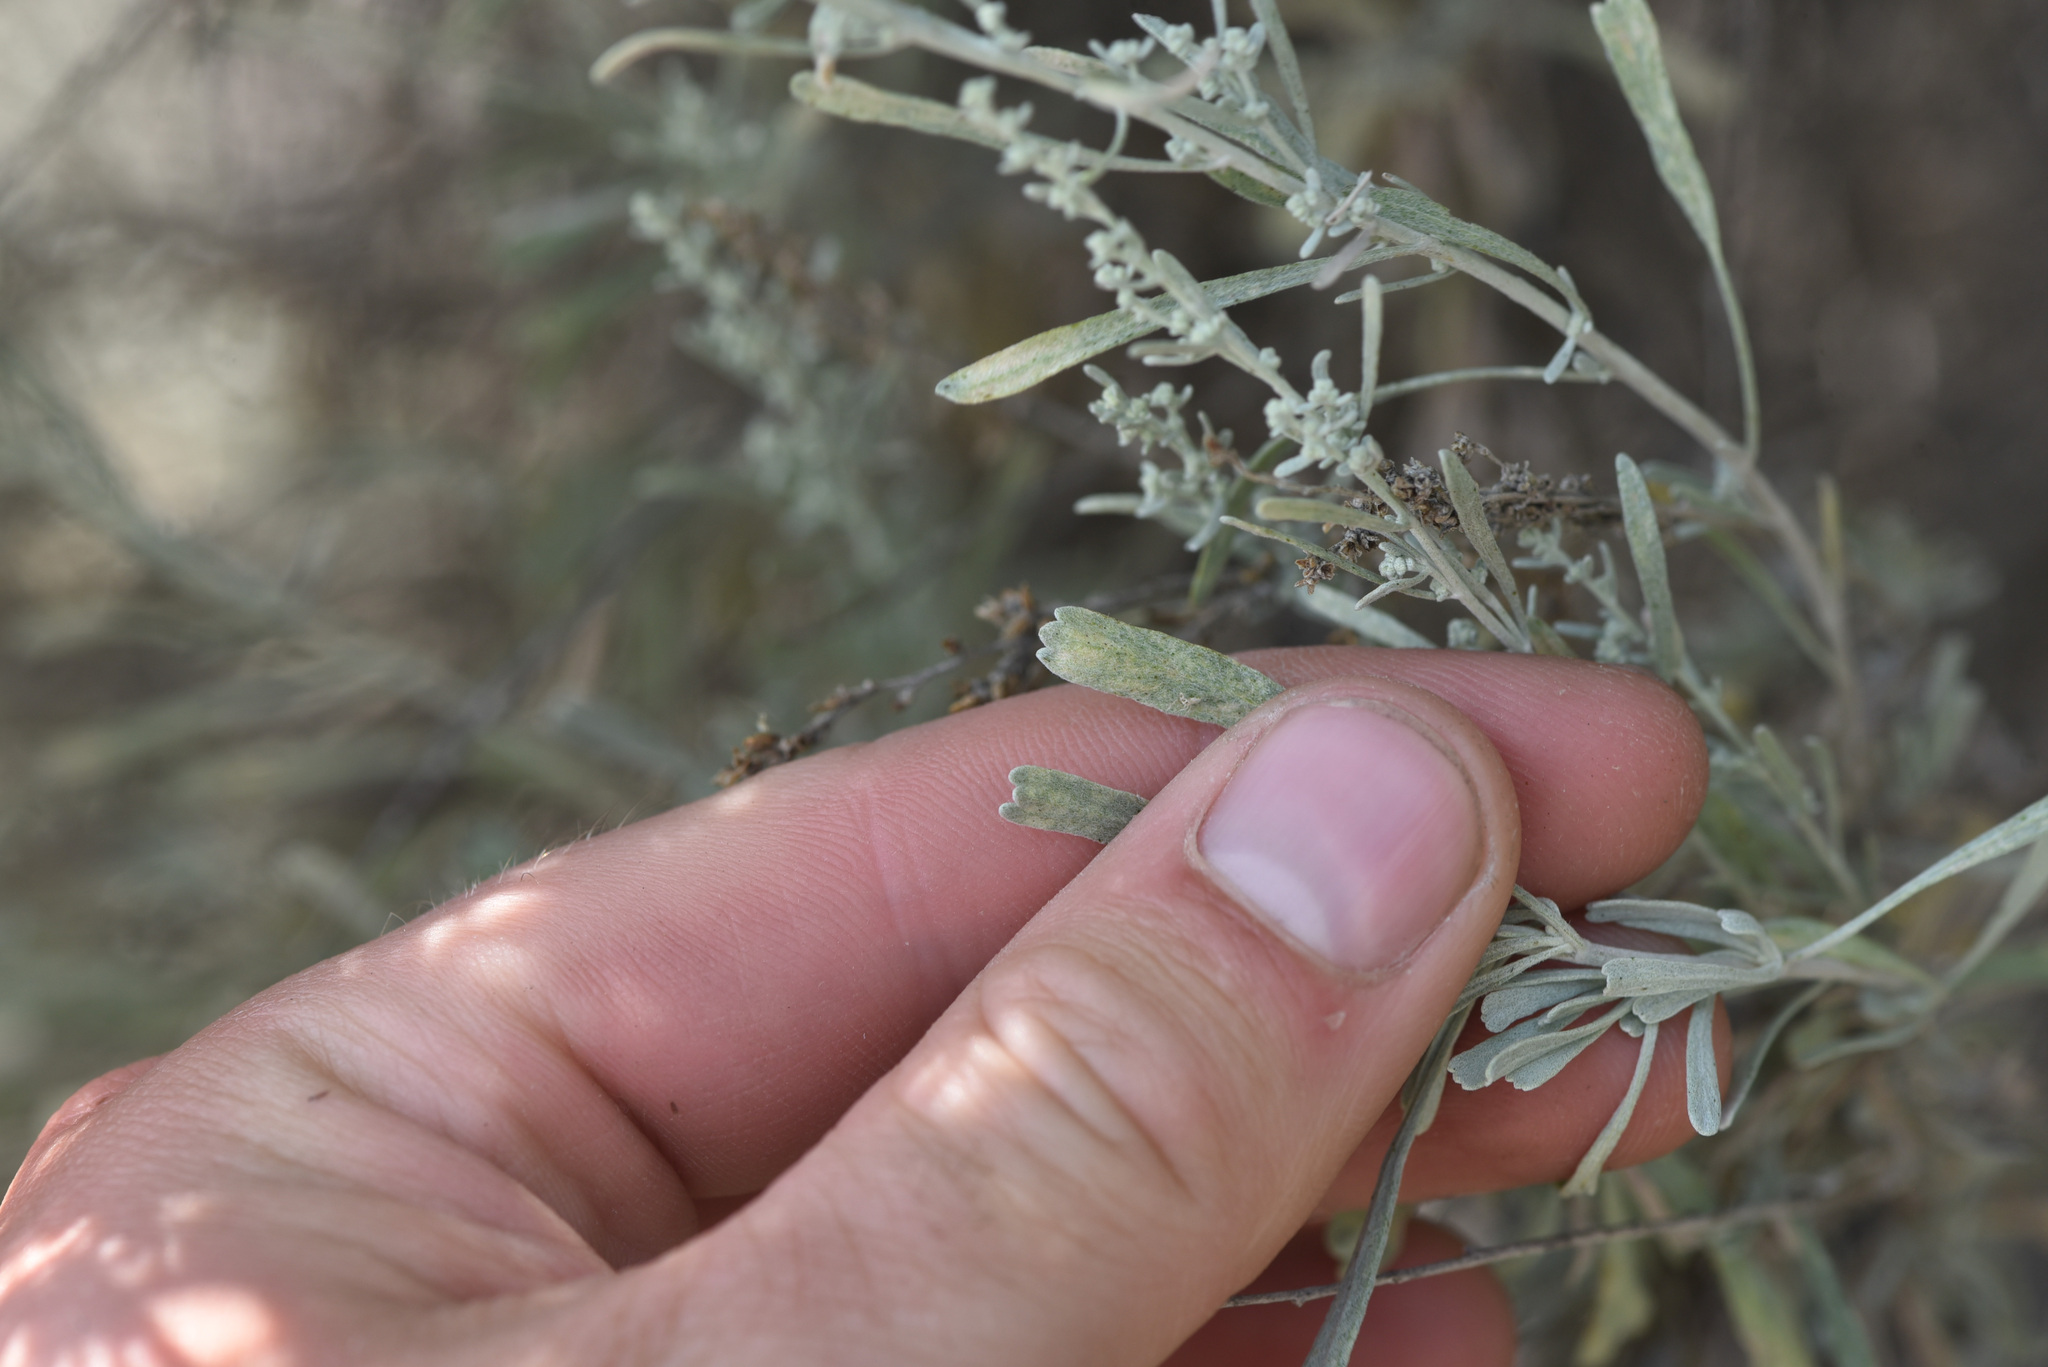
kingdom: Plantae
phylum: Tracheophyta
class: Magnoliopsida
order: Asterales
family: Asteraceae
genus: Artemisia
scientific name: Artemisia tridentata
